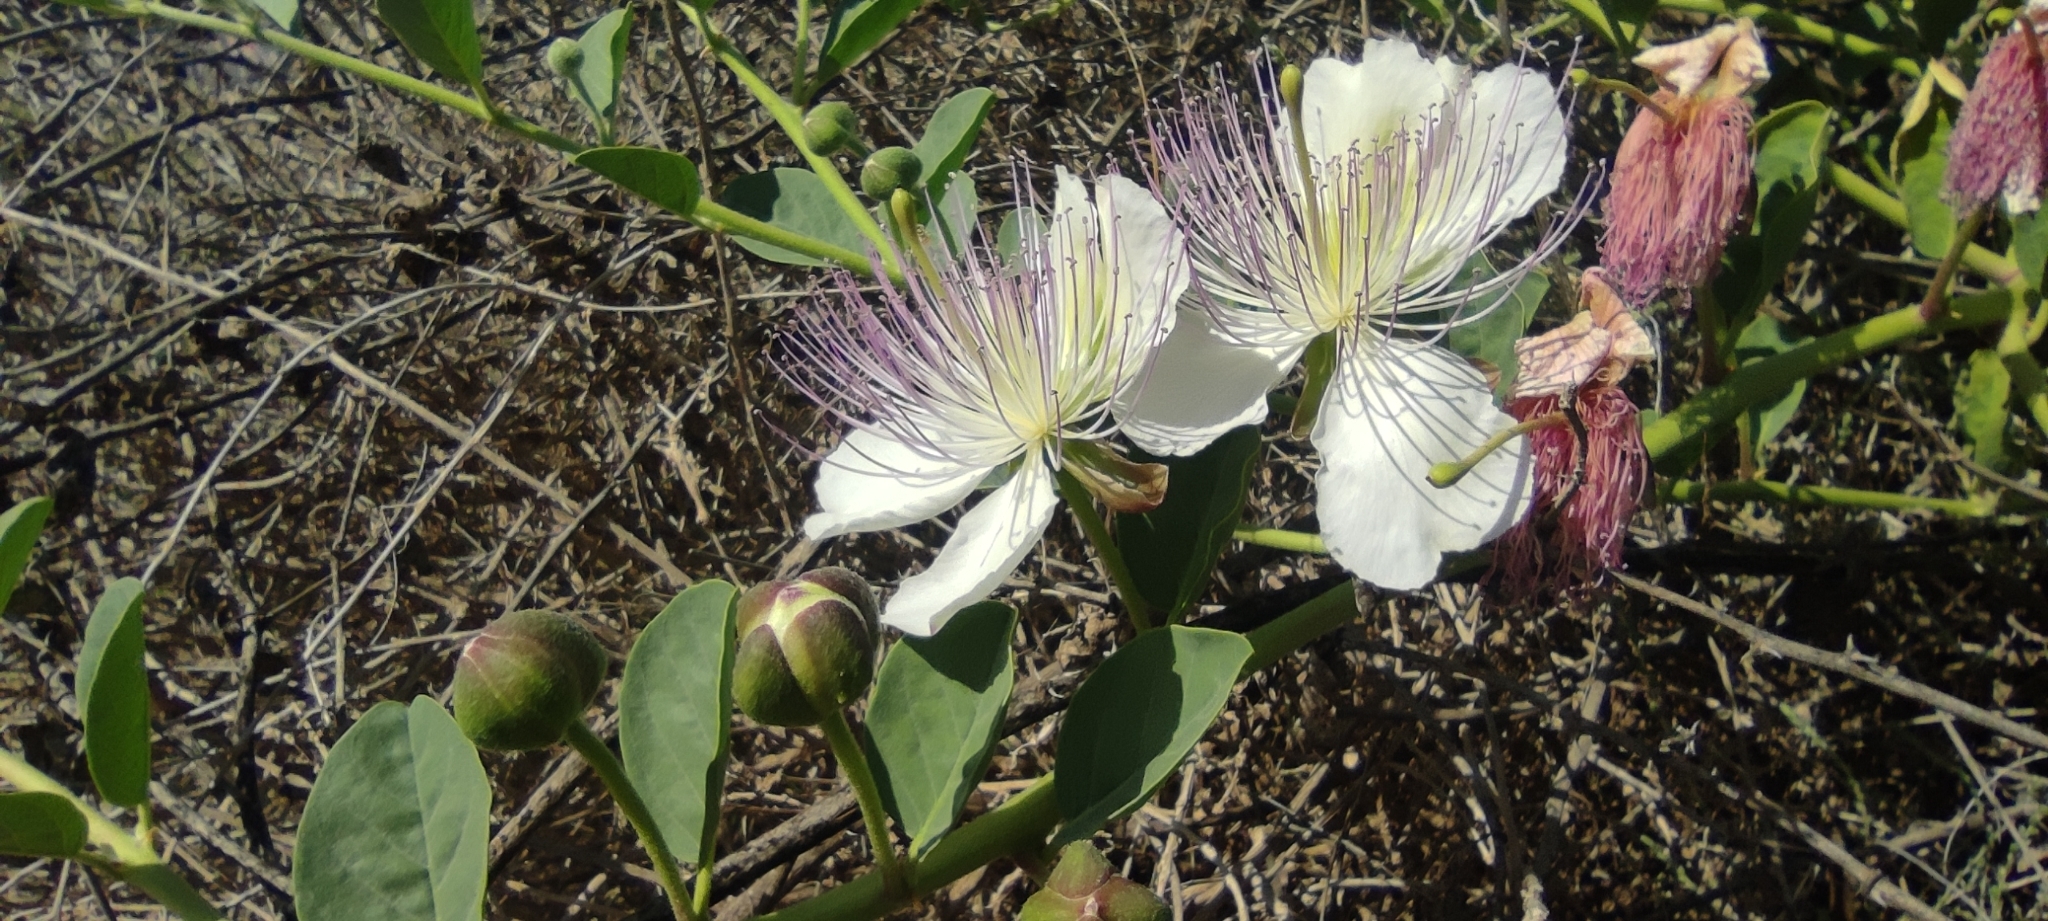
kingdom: Plantae
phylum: Tracheophyta
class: Magnoliopsida
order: Brassicales
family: Capparaceae
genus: Capparis
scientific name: Capparis spinosa
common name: Caper
